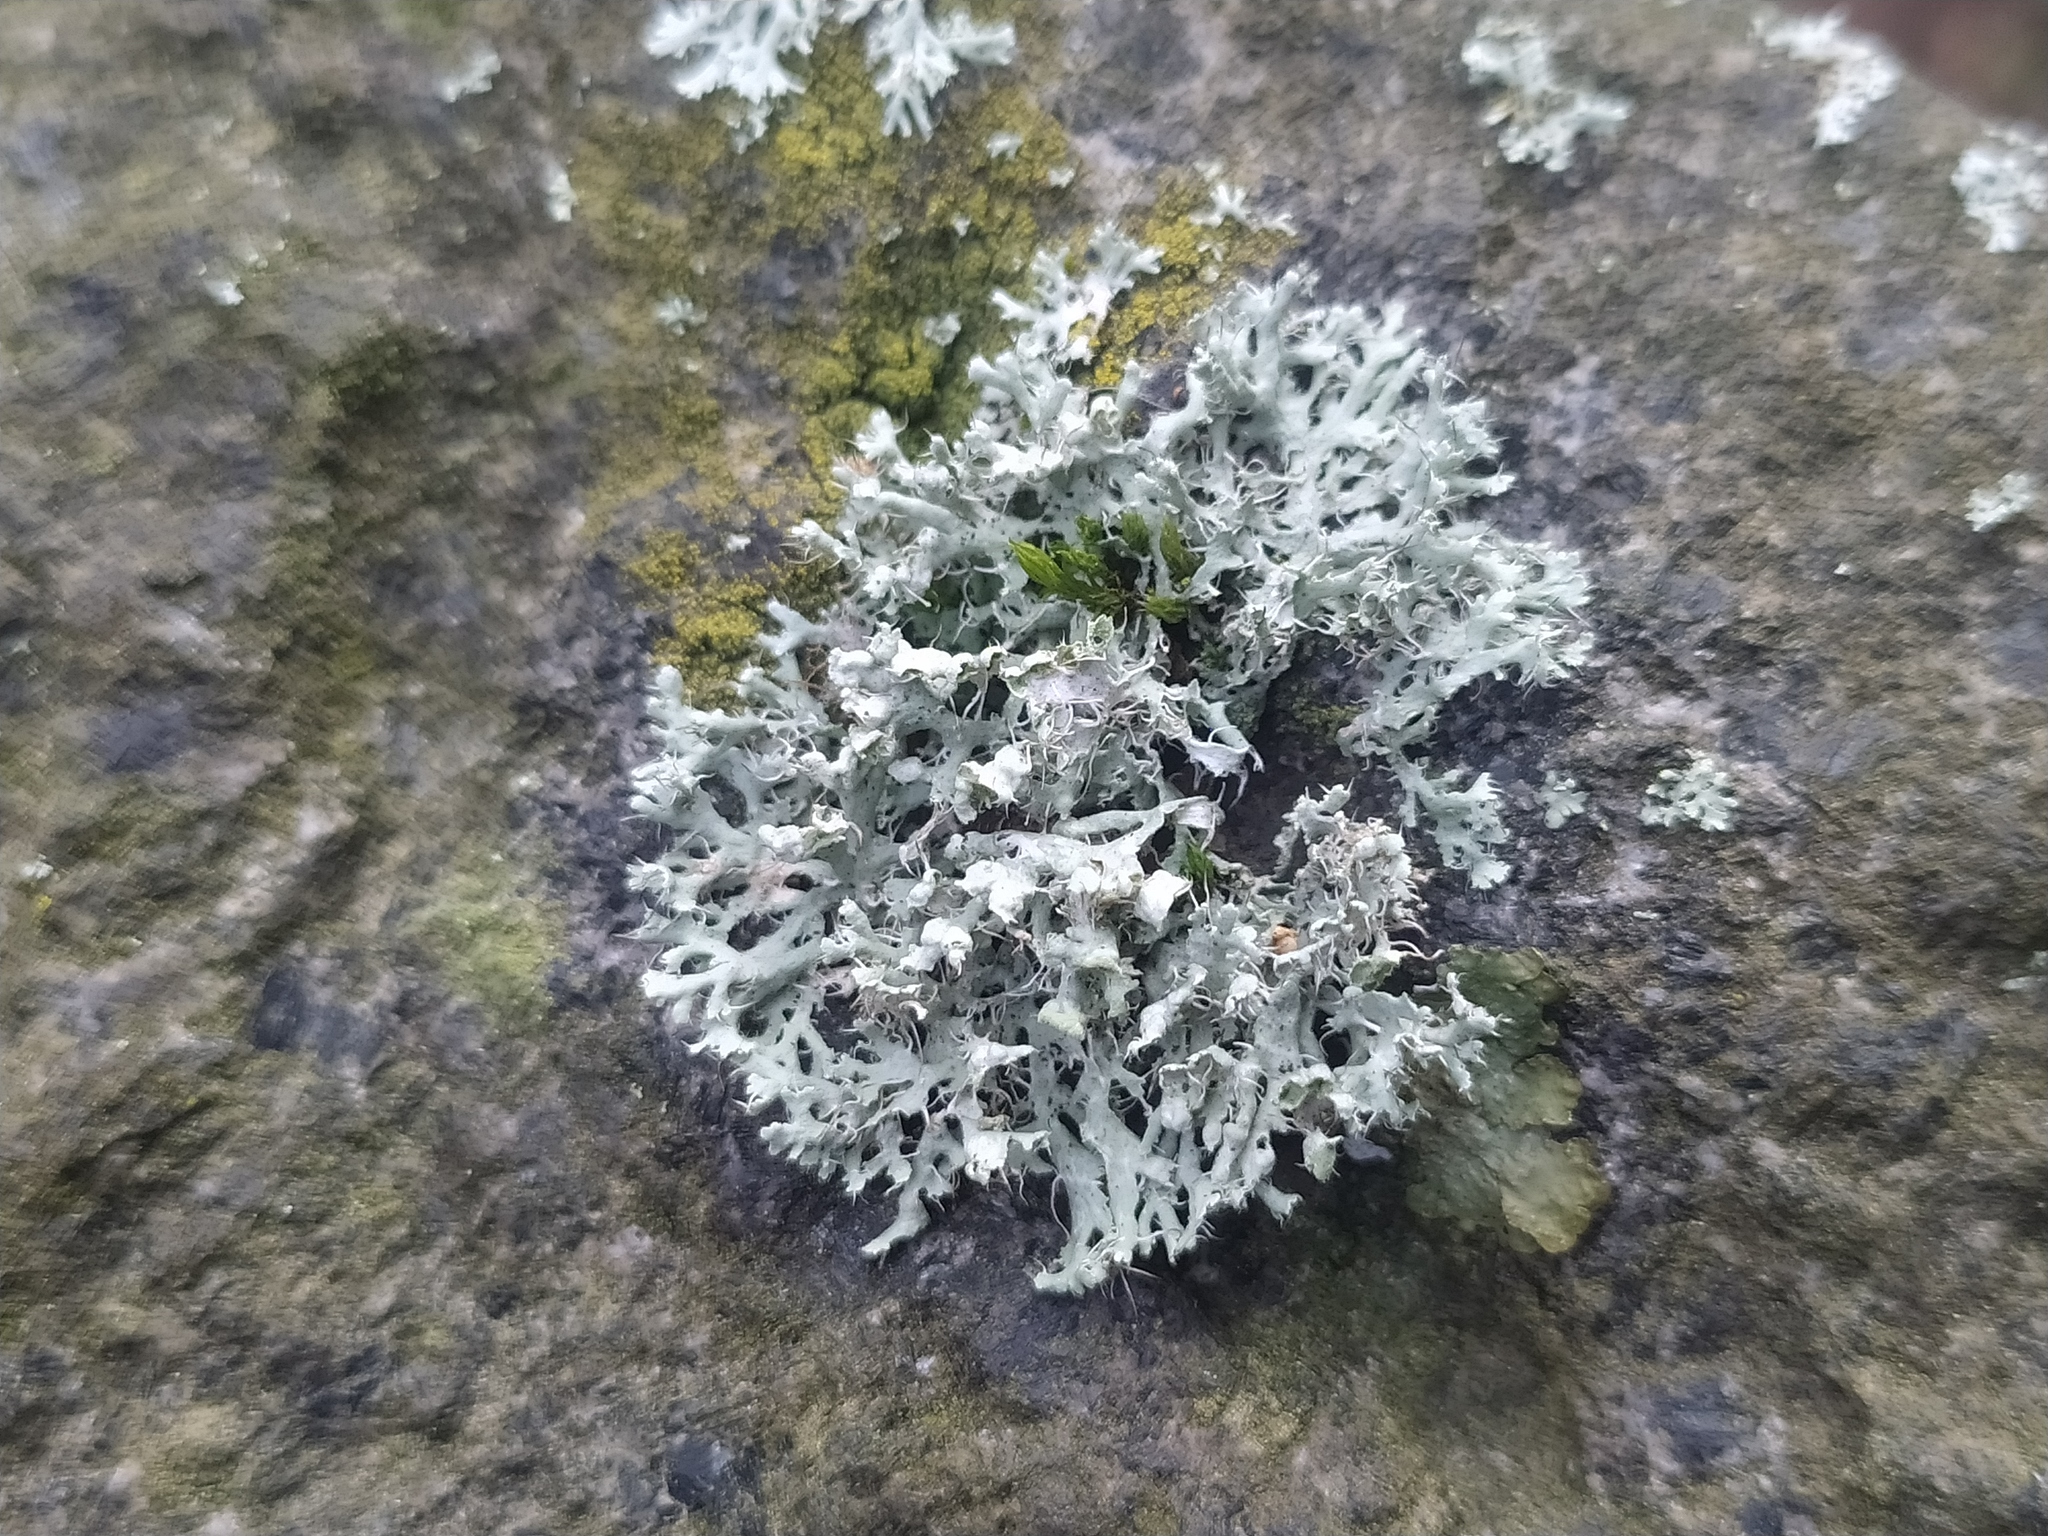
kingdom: Fungi
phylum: Ascomycota
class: Lecanoromycetes
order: Caliciales
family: Physciaceae
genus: Physcia
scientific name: Physcia adscendens
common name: Hooded rosette lichen
